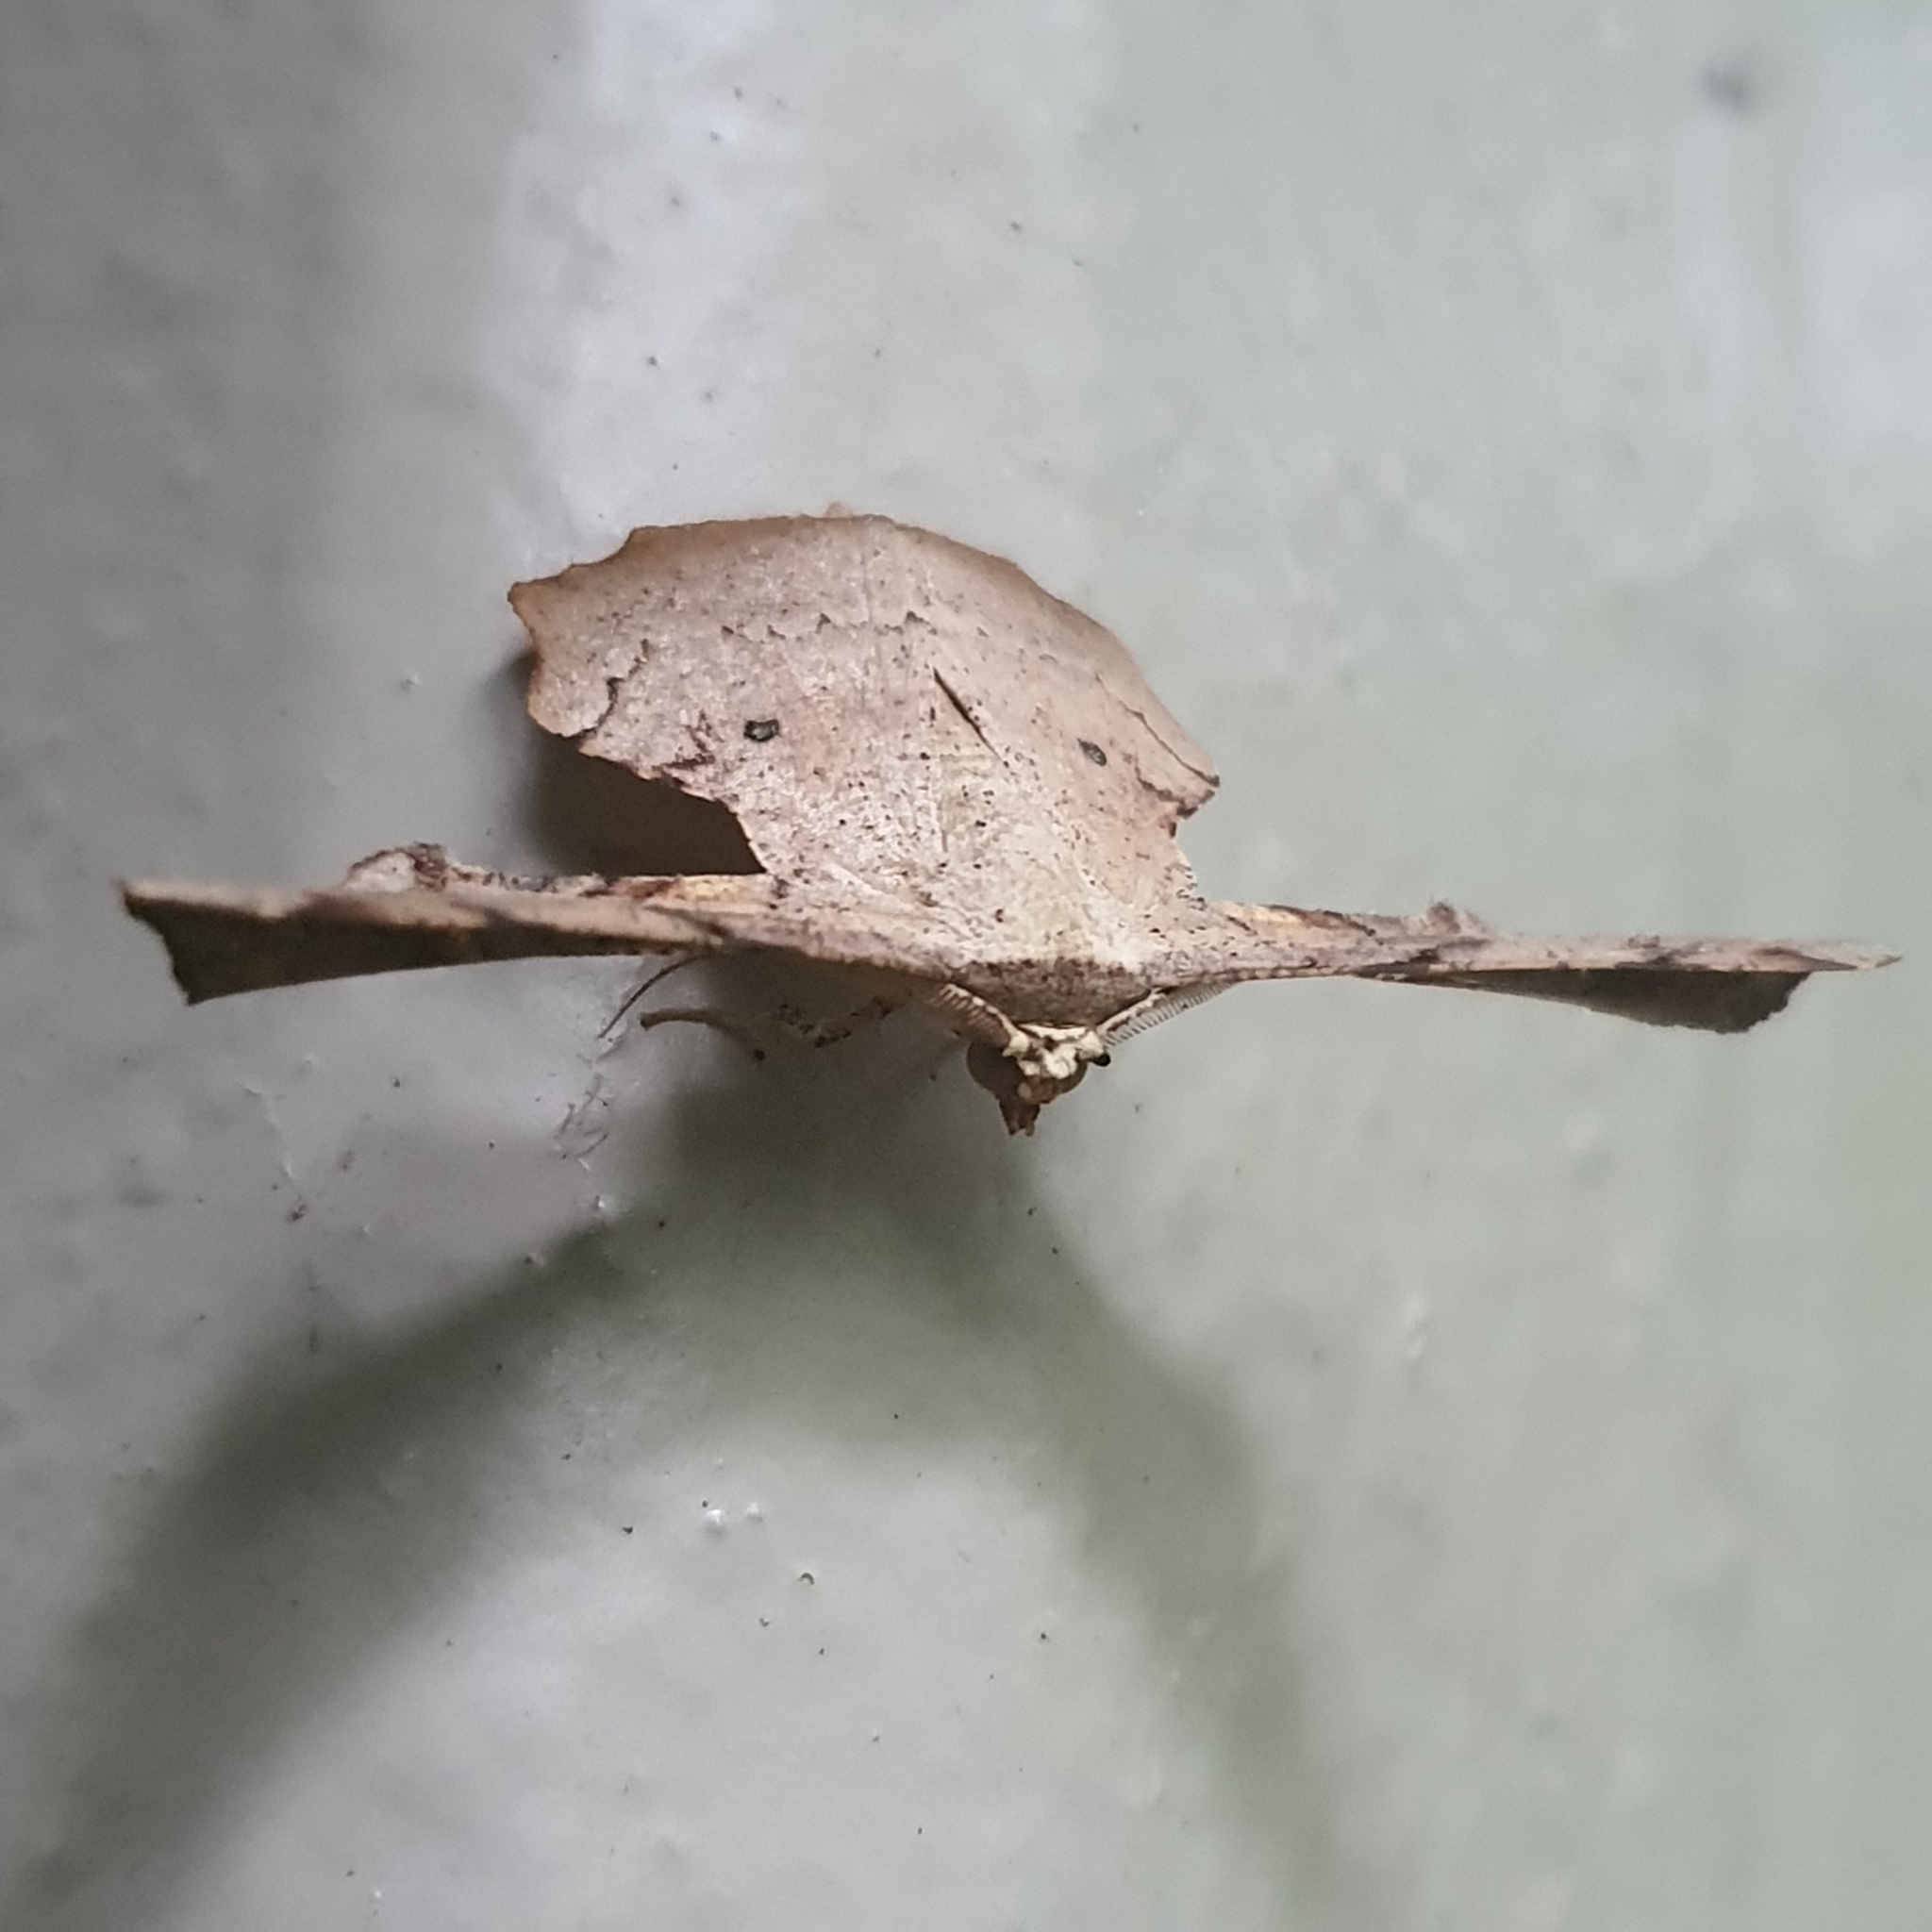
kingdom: Animalia
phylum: Arthropoda
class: Insecta
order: Lepidoptera
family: Geometridae
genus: Gonodontis
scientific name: Gonodontis clelia
